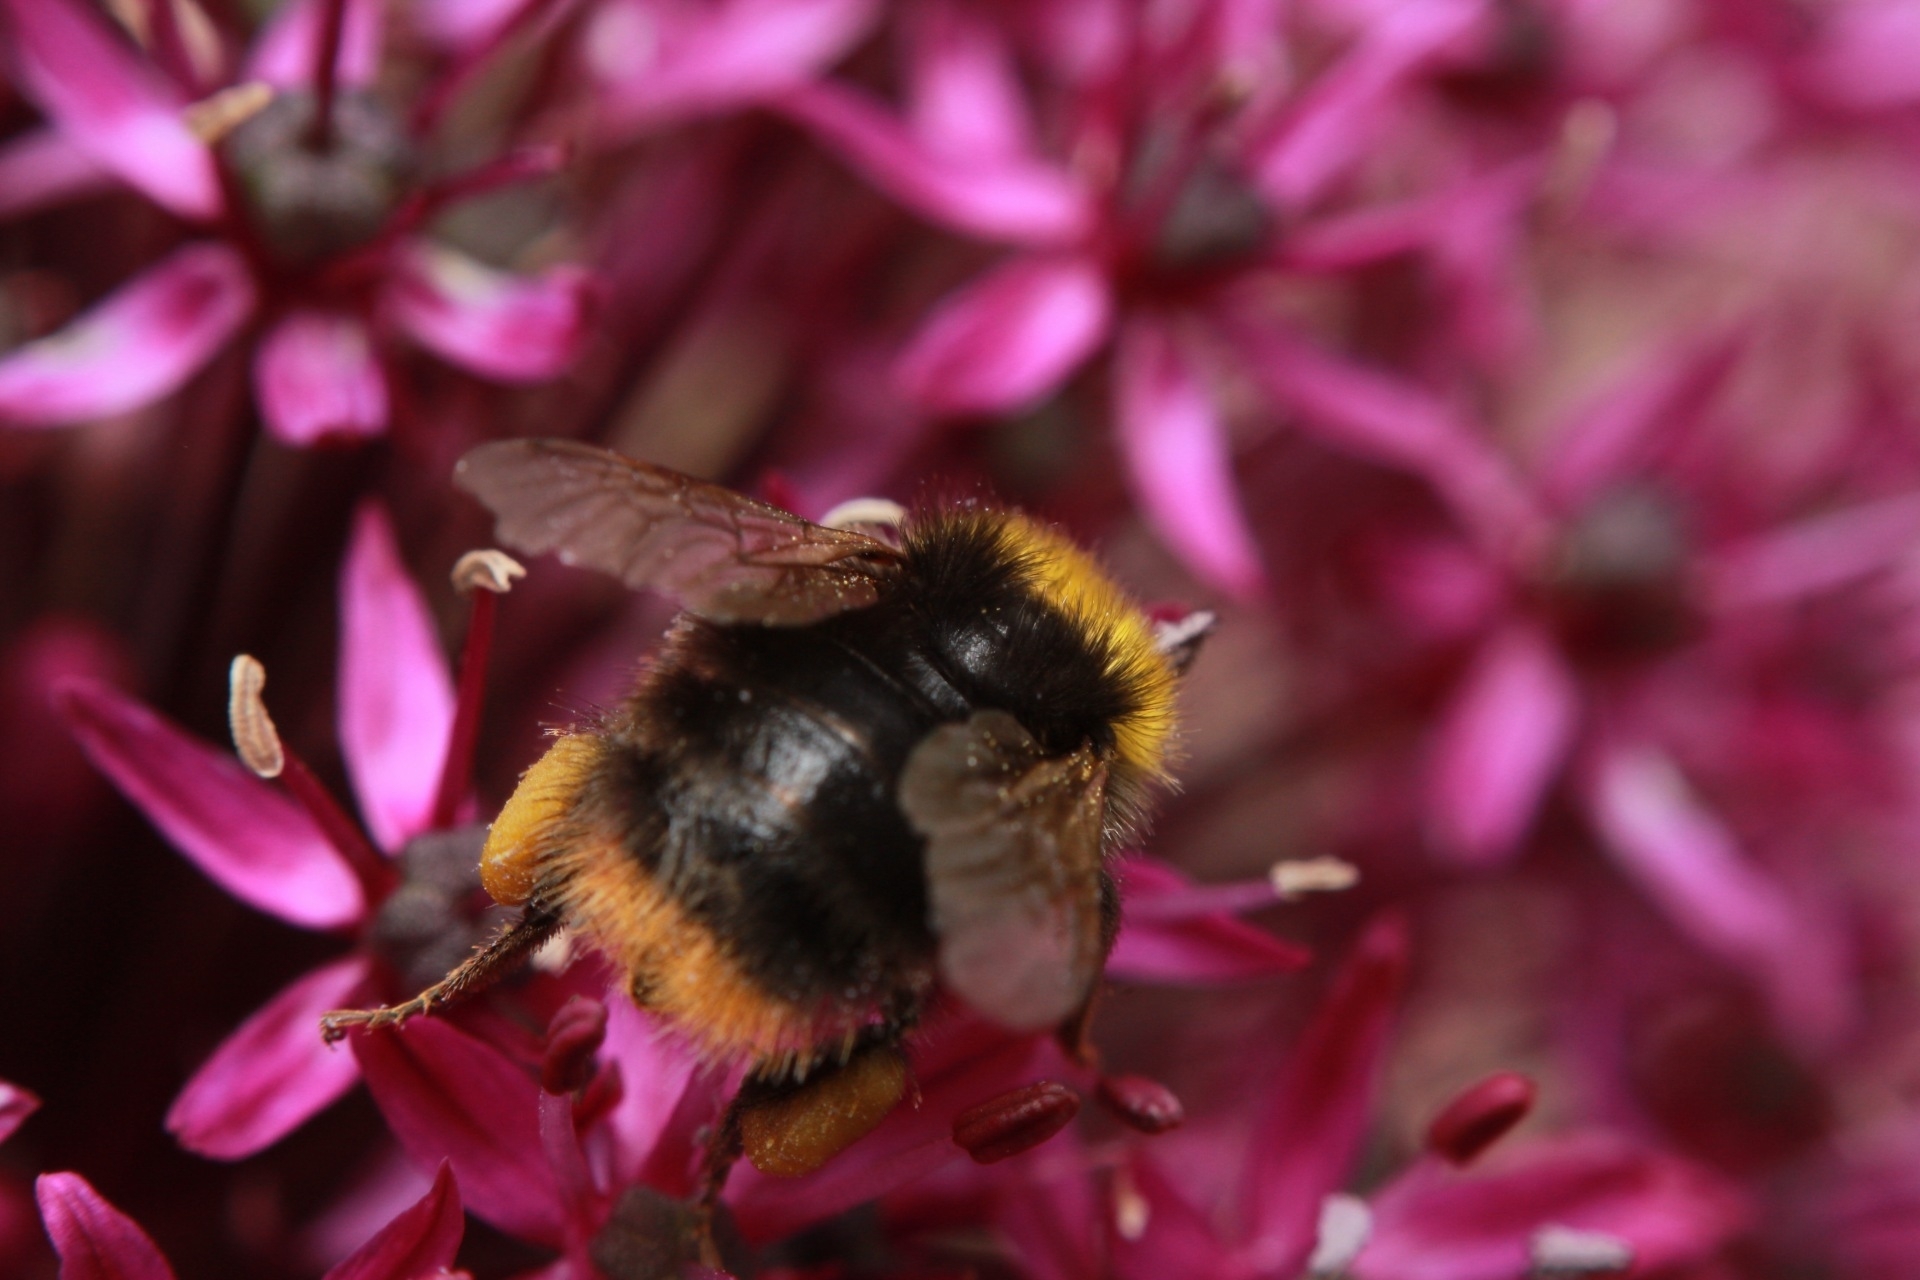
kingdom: Animalia
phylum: Arthropoda
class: Insecta
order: Hymenoptera
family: Apidae
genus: Bombus
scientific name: Bombus pratorum
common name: Early humble-bee
